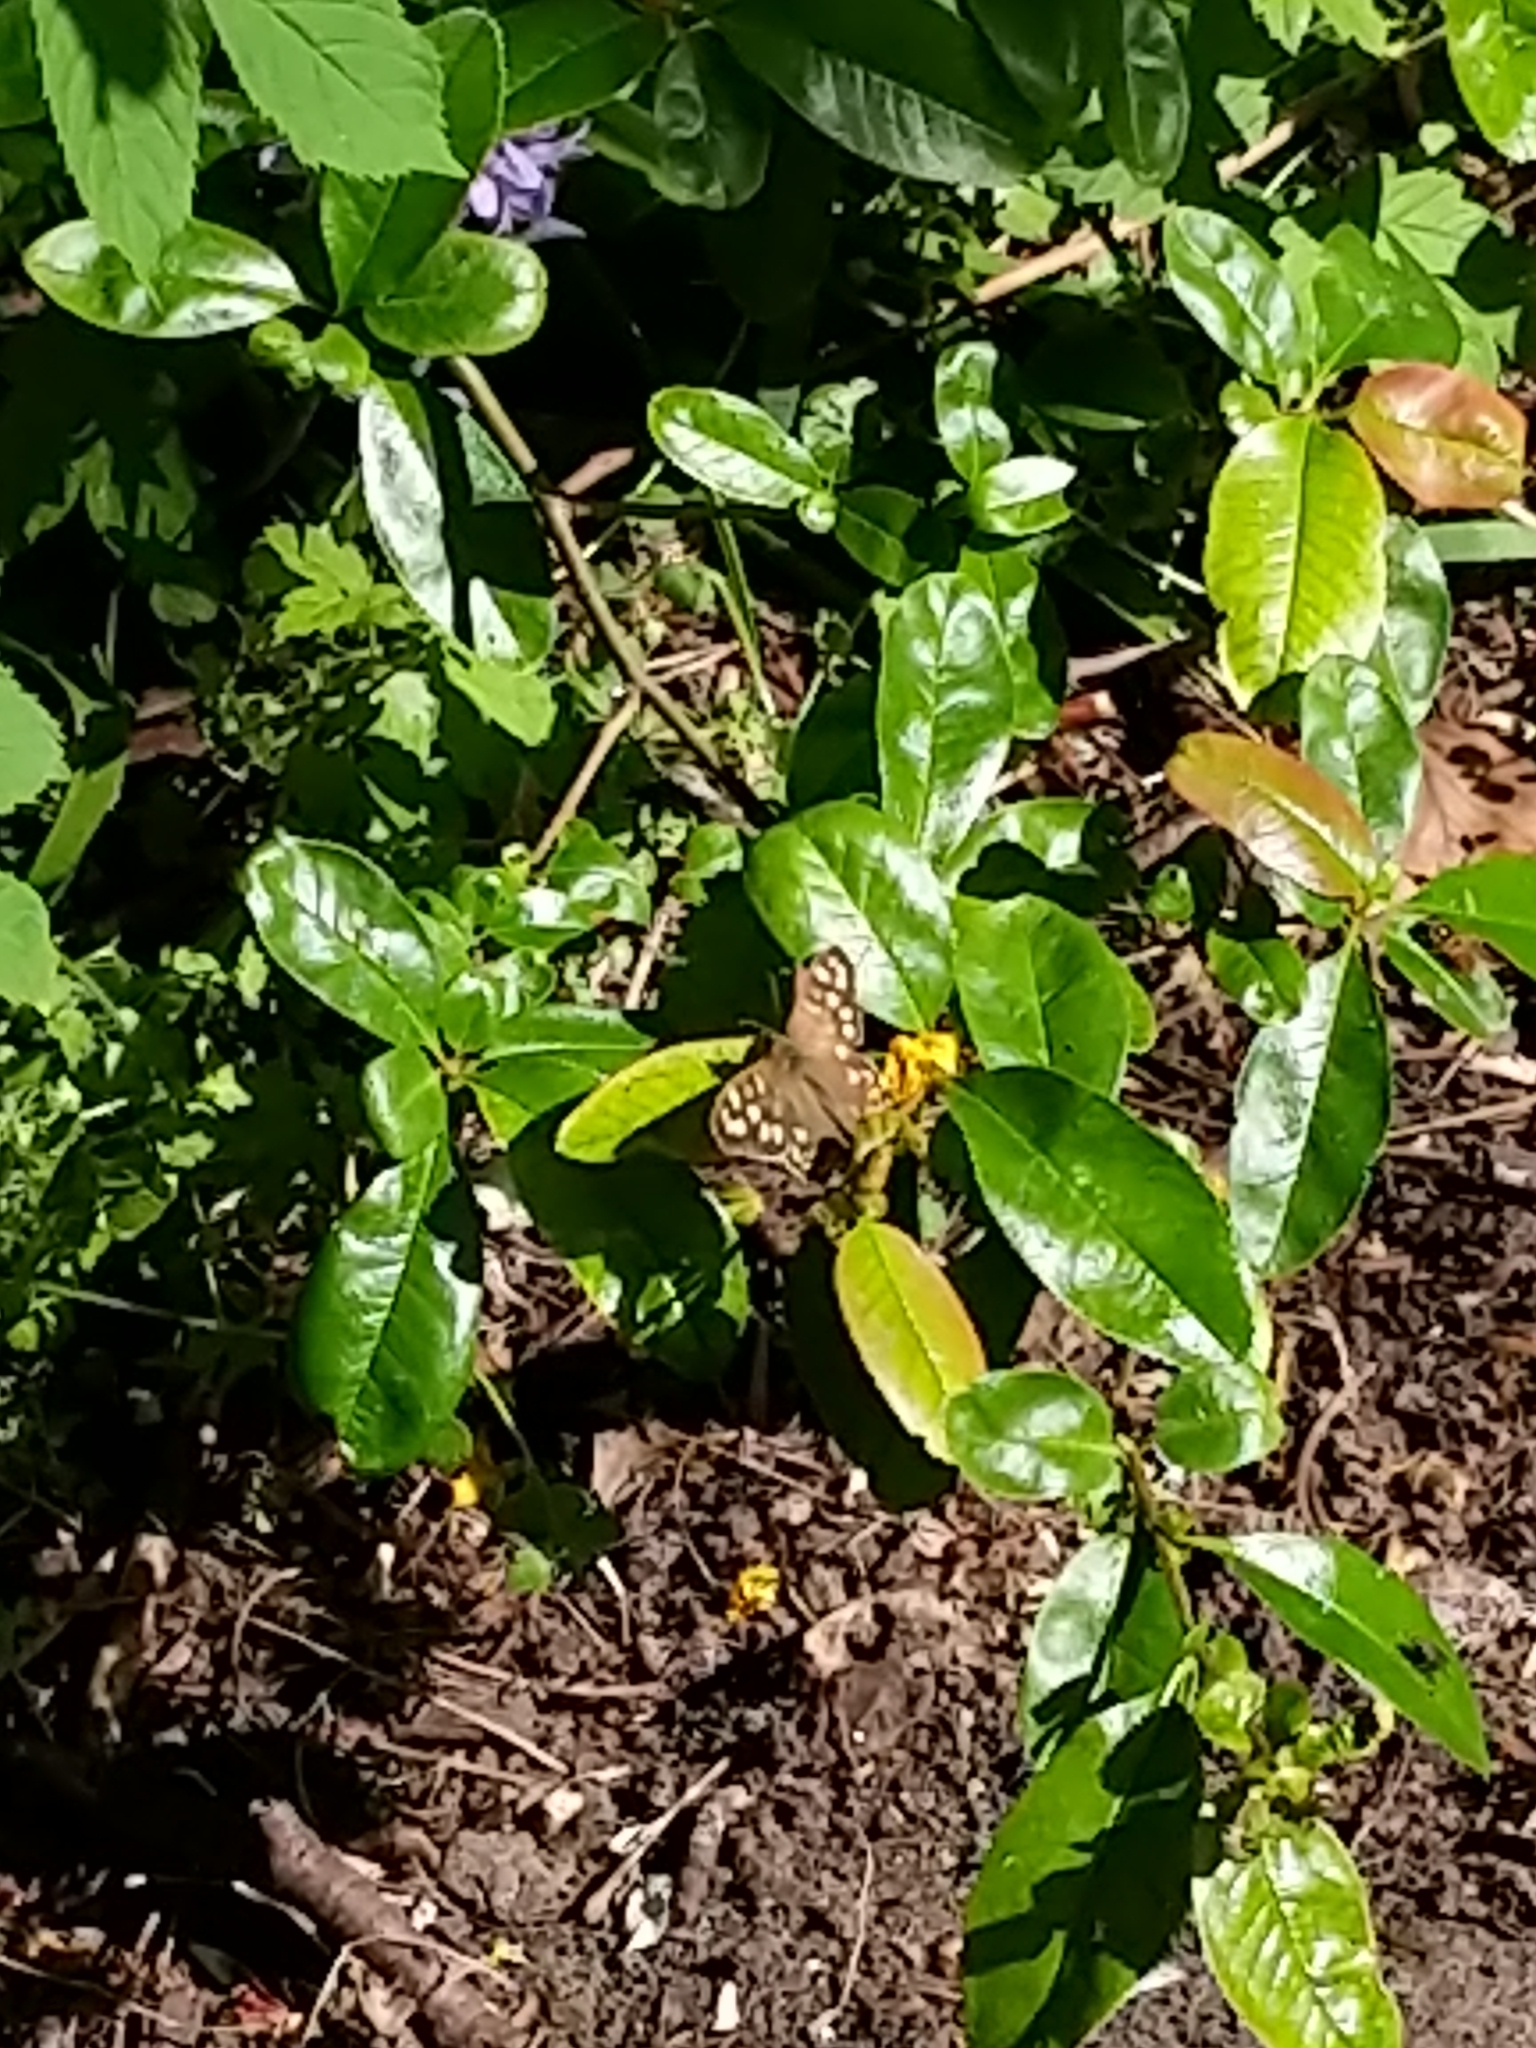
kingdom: Animalia
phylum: Arthropoda
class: Insecta
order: Lepidoptera
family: Nymphalidae
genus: Pararge
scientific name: Pararge aegeria
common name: Speckled wood
